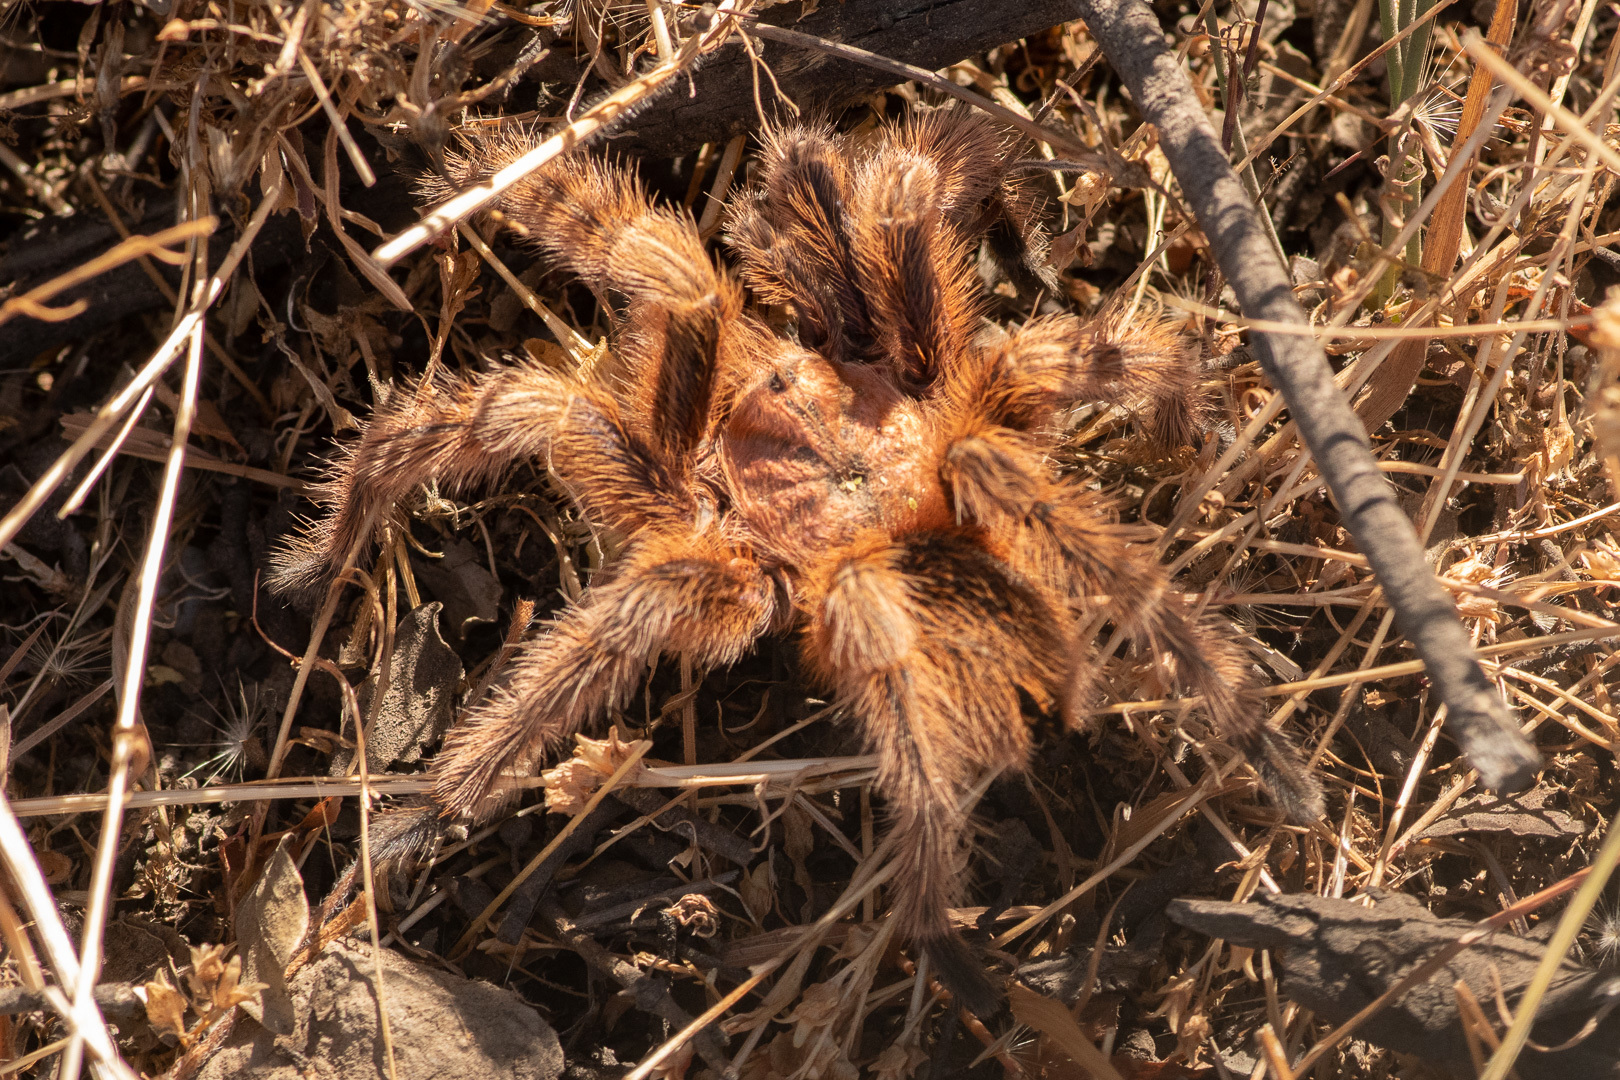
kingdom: Animalia
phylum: Arthropoda
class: Arachnida
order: Araneae
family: Theraphosidae
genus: Grammostola
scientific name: Grammostola rosea
